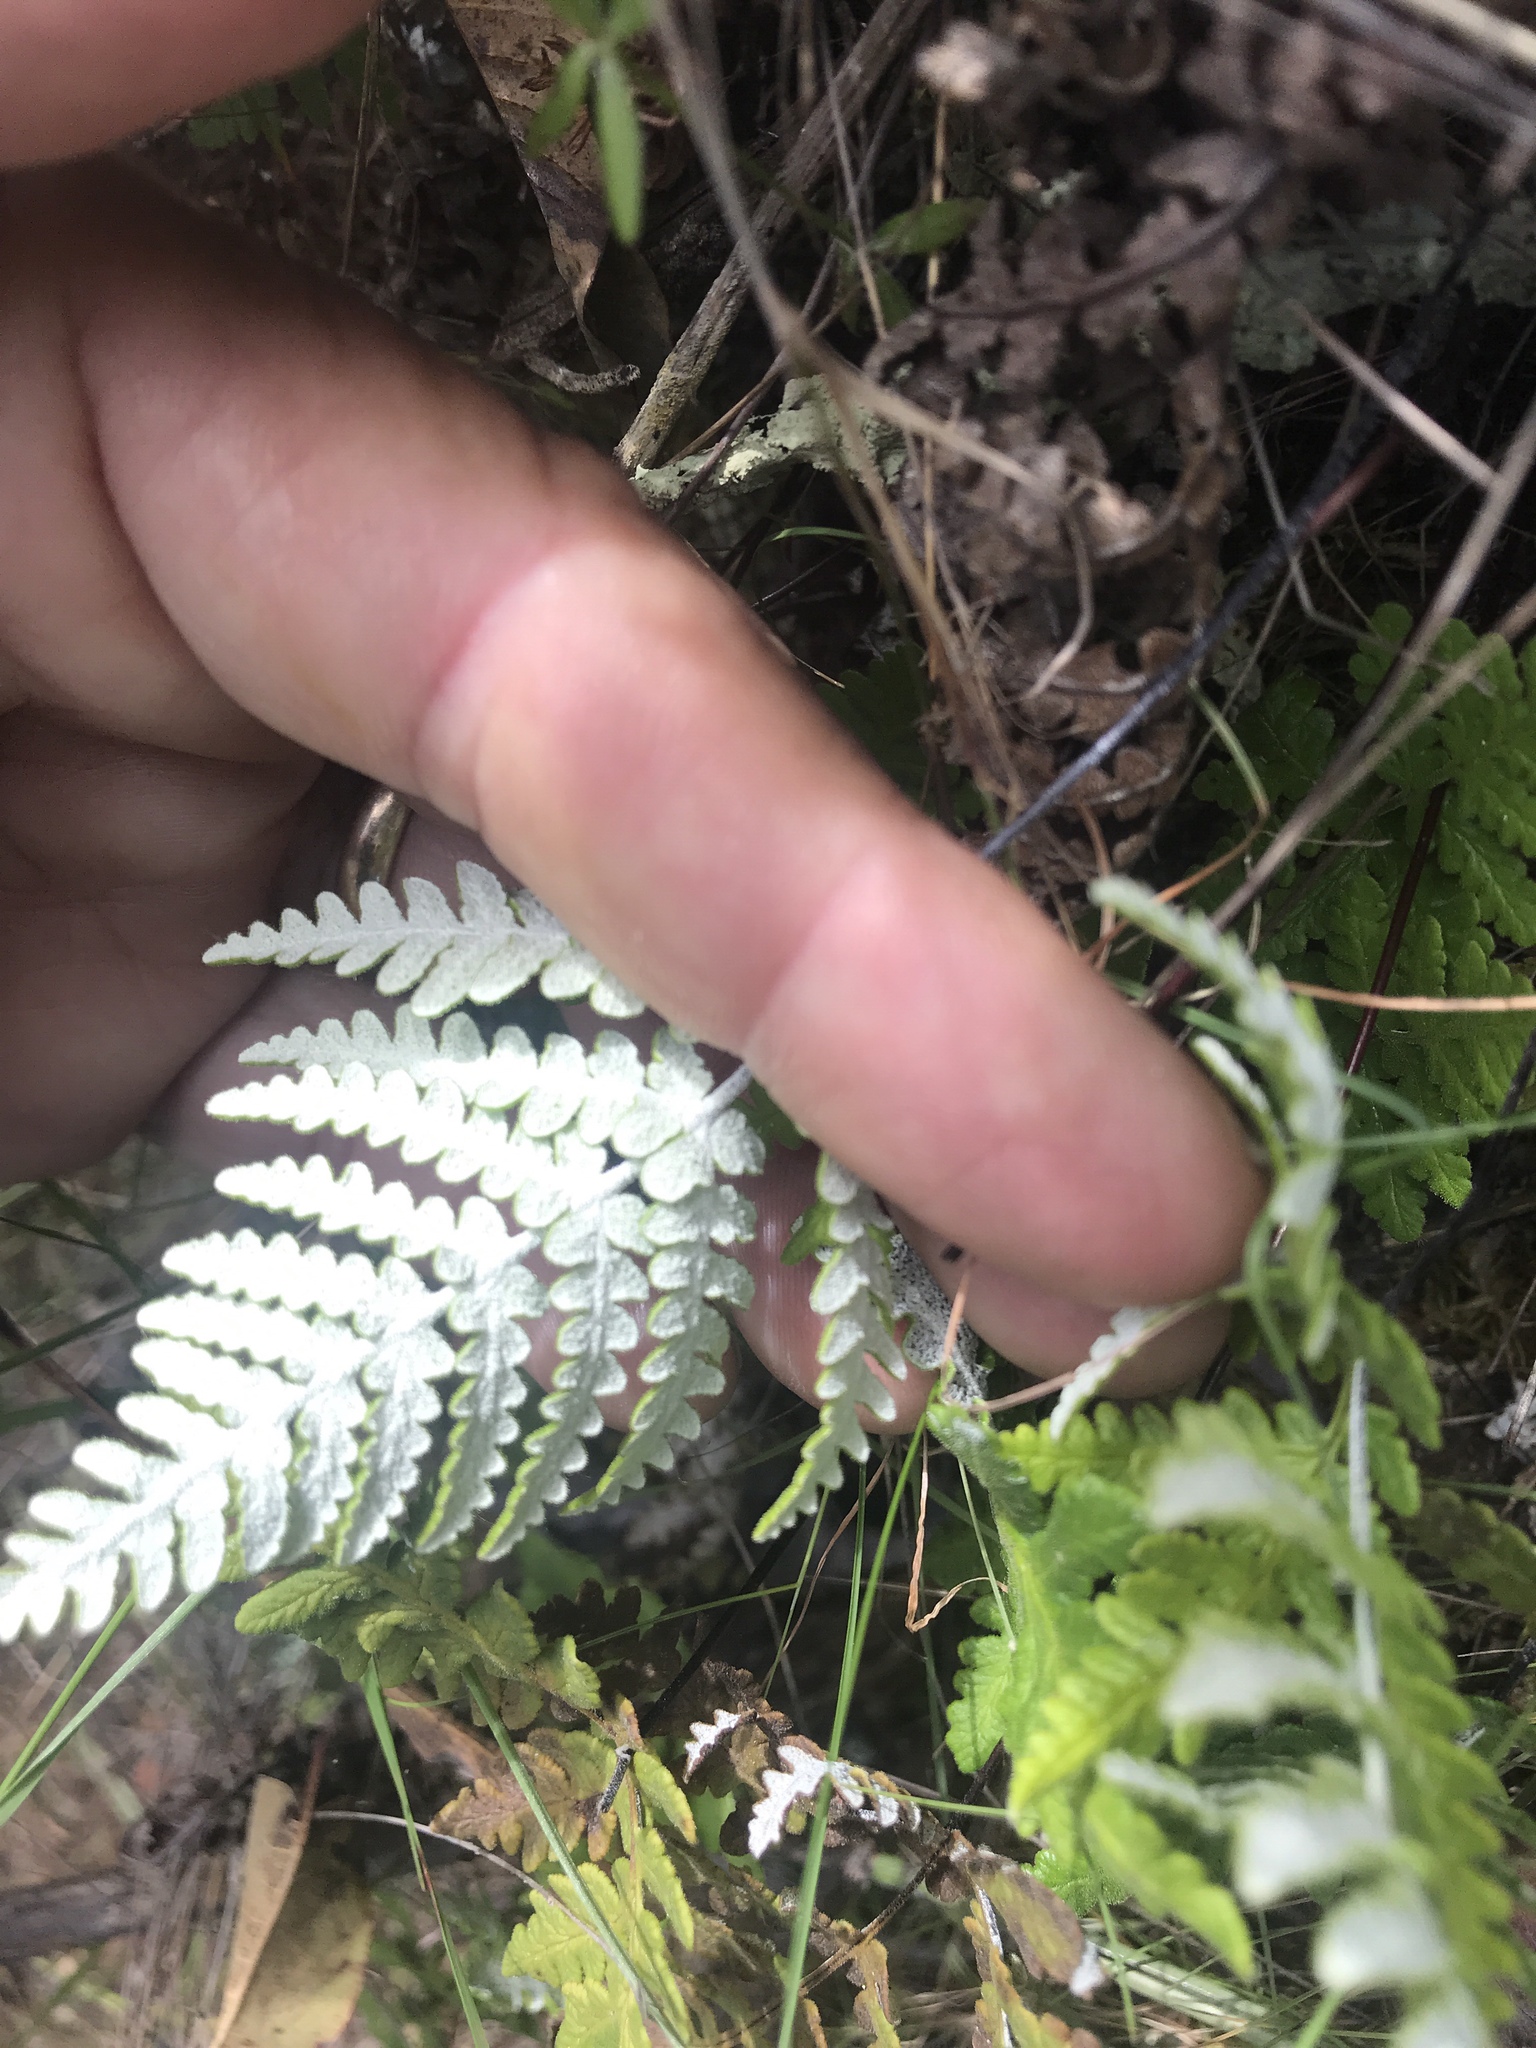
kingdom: Plantae
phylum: Tracheophyta
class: Polypodiopsida
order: Polypodiales
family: Pteridaceae
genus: Pentagramma
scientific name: Pentagramma glanduloviscida
